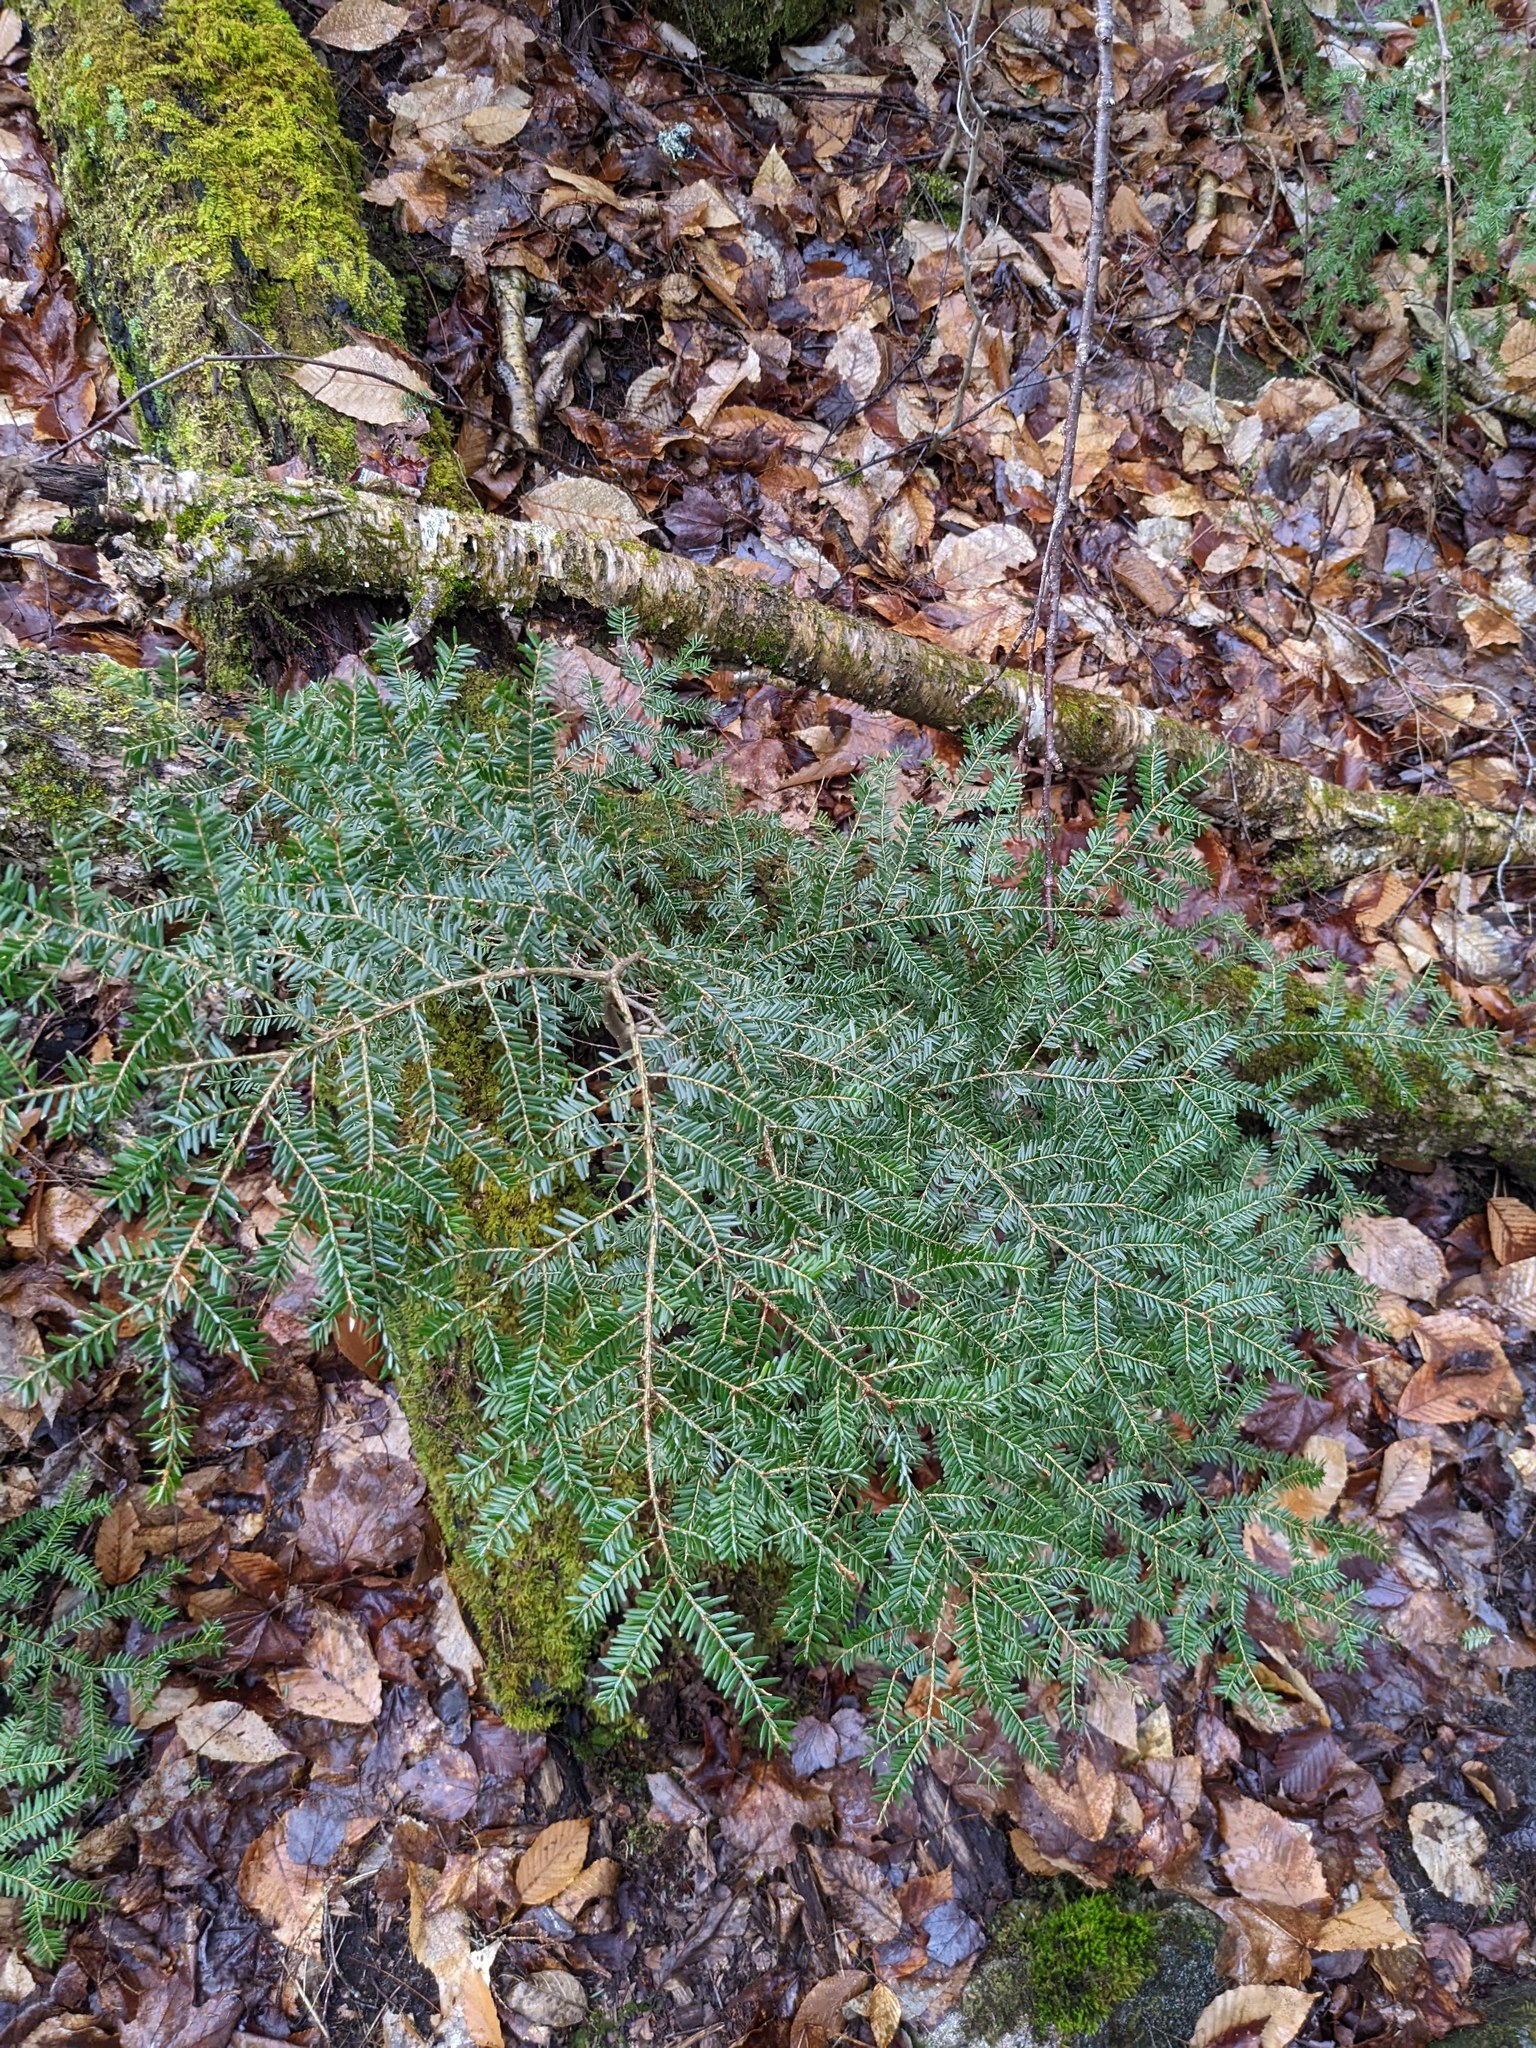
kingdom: Plantae
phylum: Tracheophyta
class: Pinopsida
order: Pinales
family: Pinaceae
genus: Tsuga
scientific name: Tsuga canadensis
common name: Eastern hemlock
